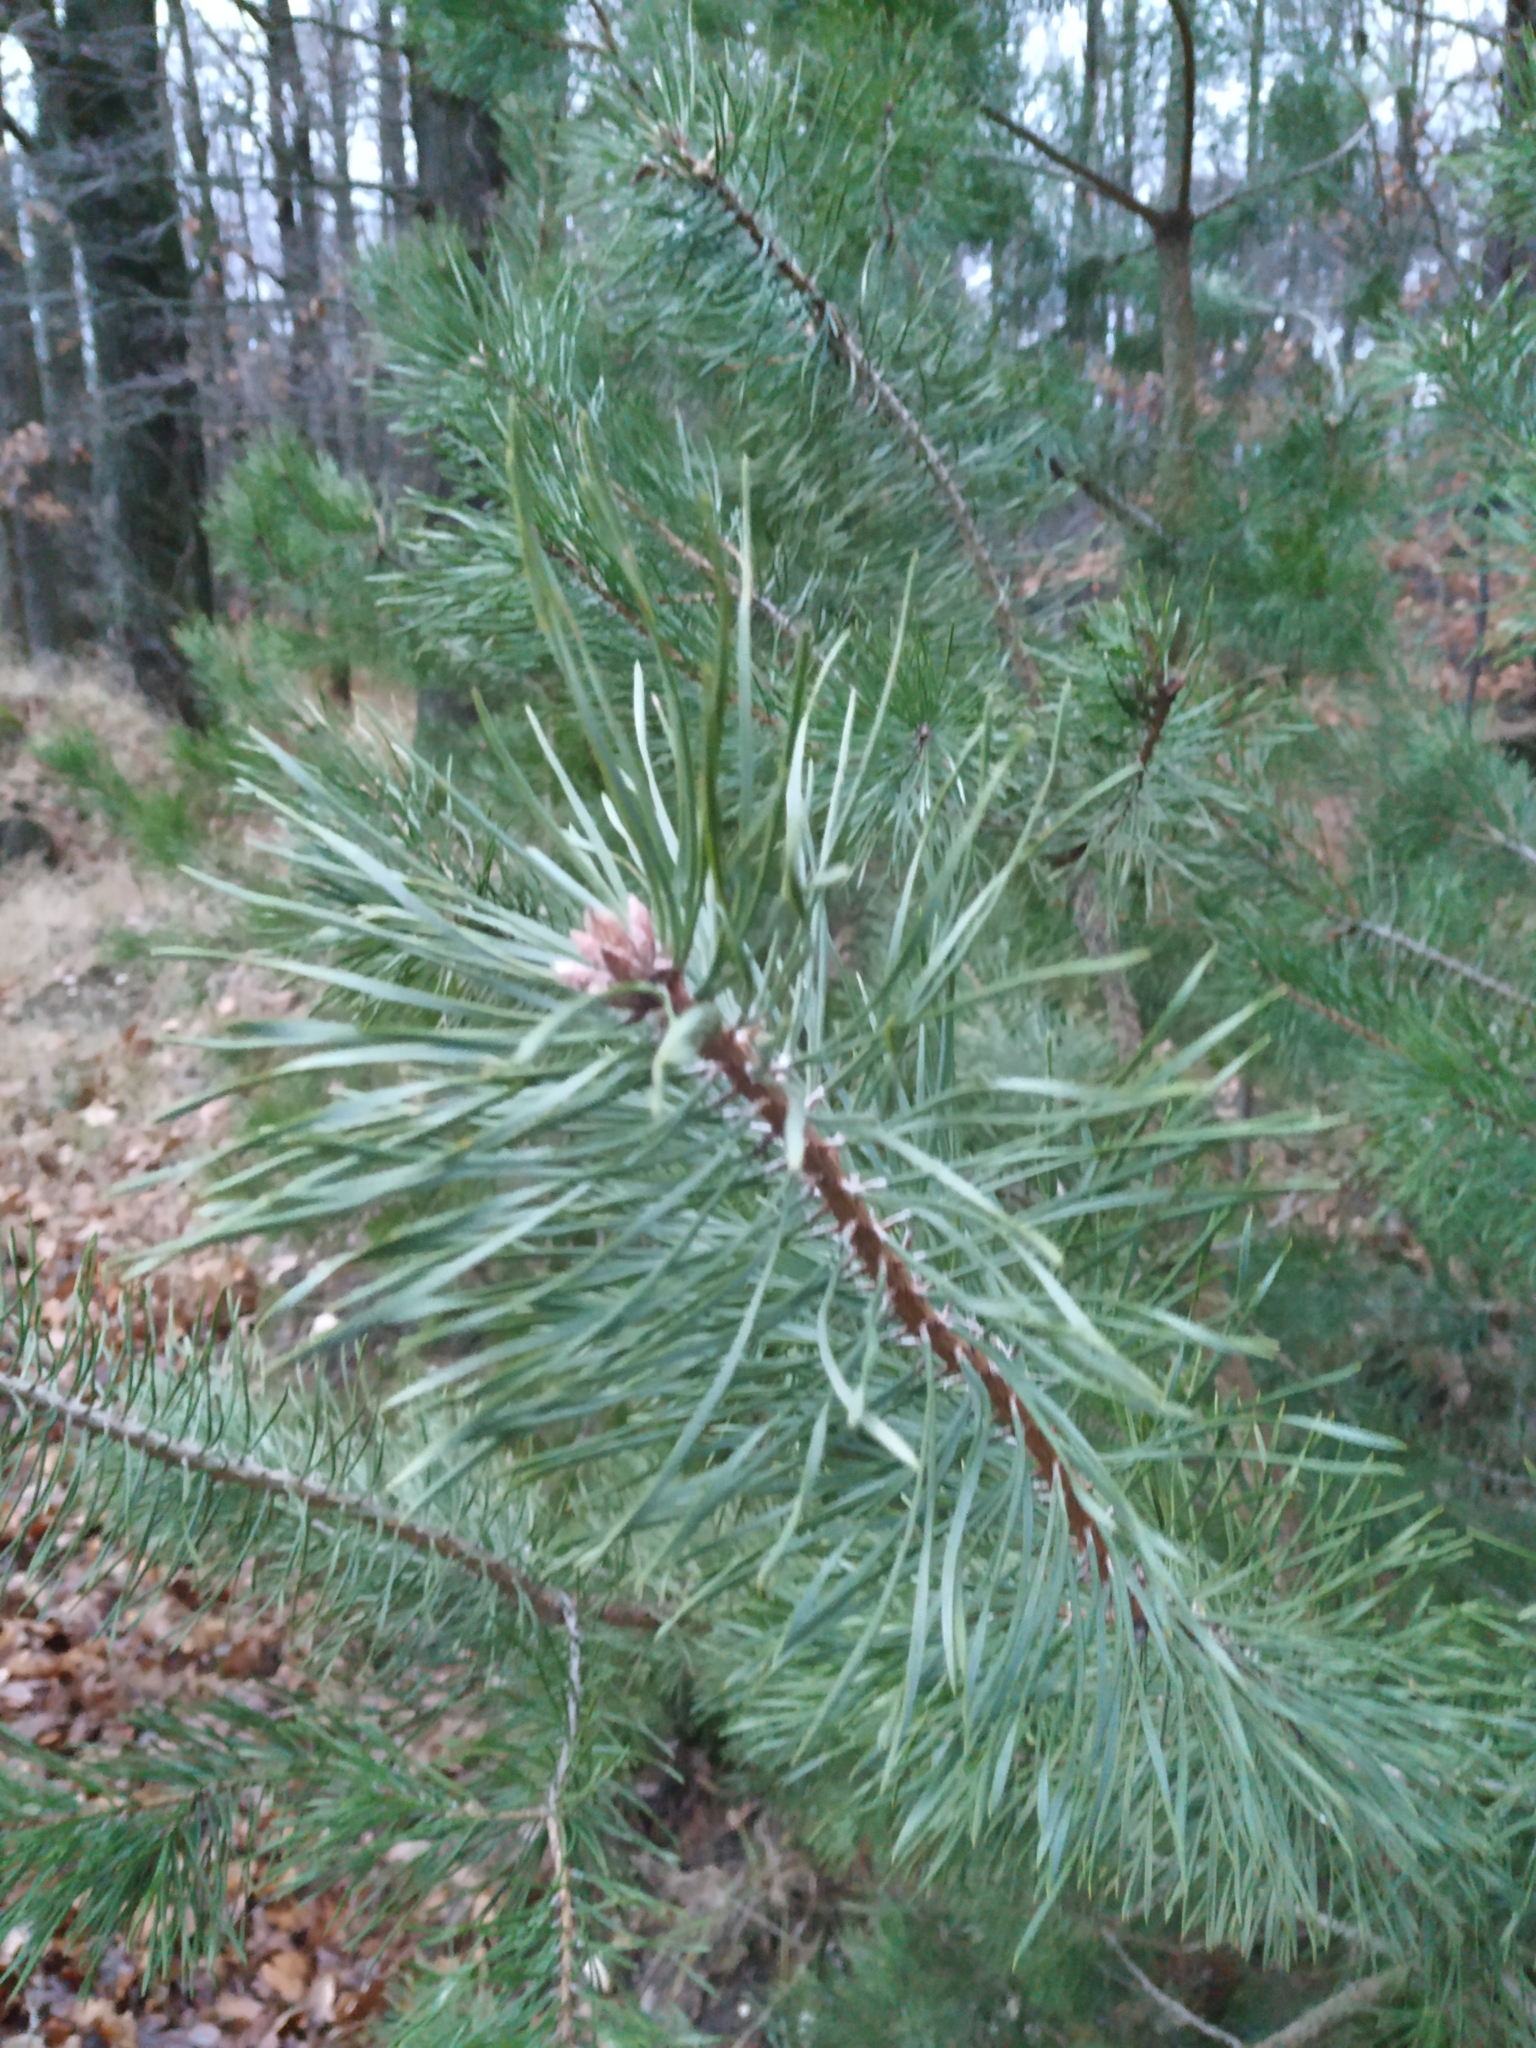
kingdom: Plantae
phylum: Tracheophyta
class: Pinopsida
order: Pinales
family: Pinaceae
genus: Pinus
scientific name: Pinus sylvestris
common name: Scots pine
